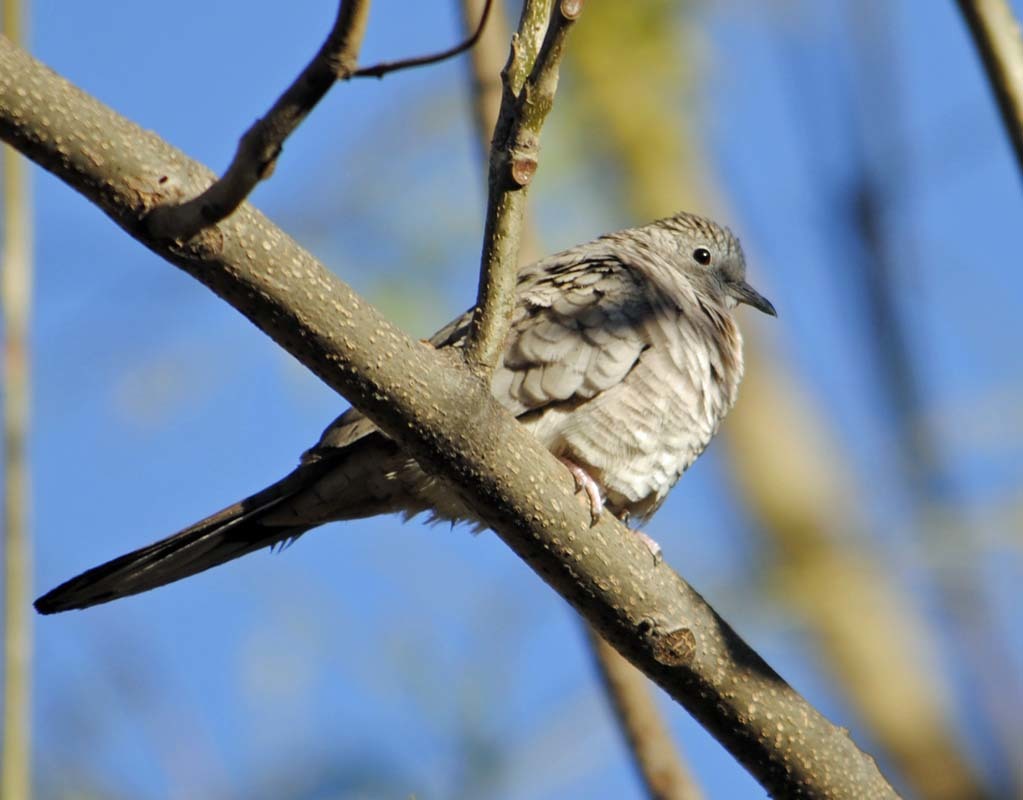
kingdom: Animalia
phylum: Chordata
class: Aves
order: Columbiformes
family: Columbidae
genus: Columbina
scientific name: Columbina inca
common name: Inca dove
